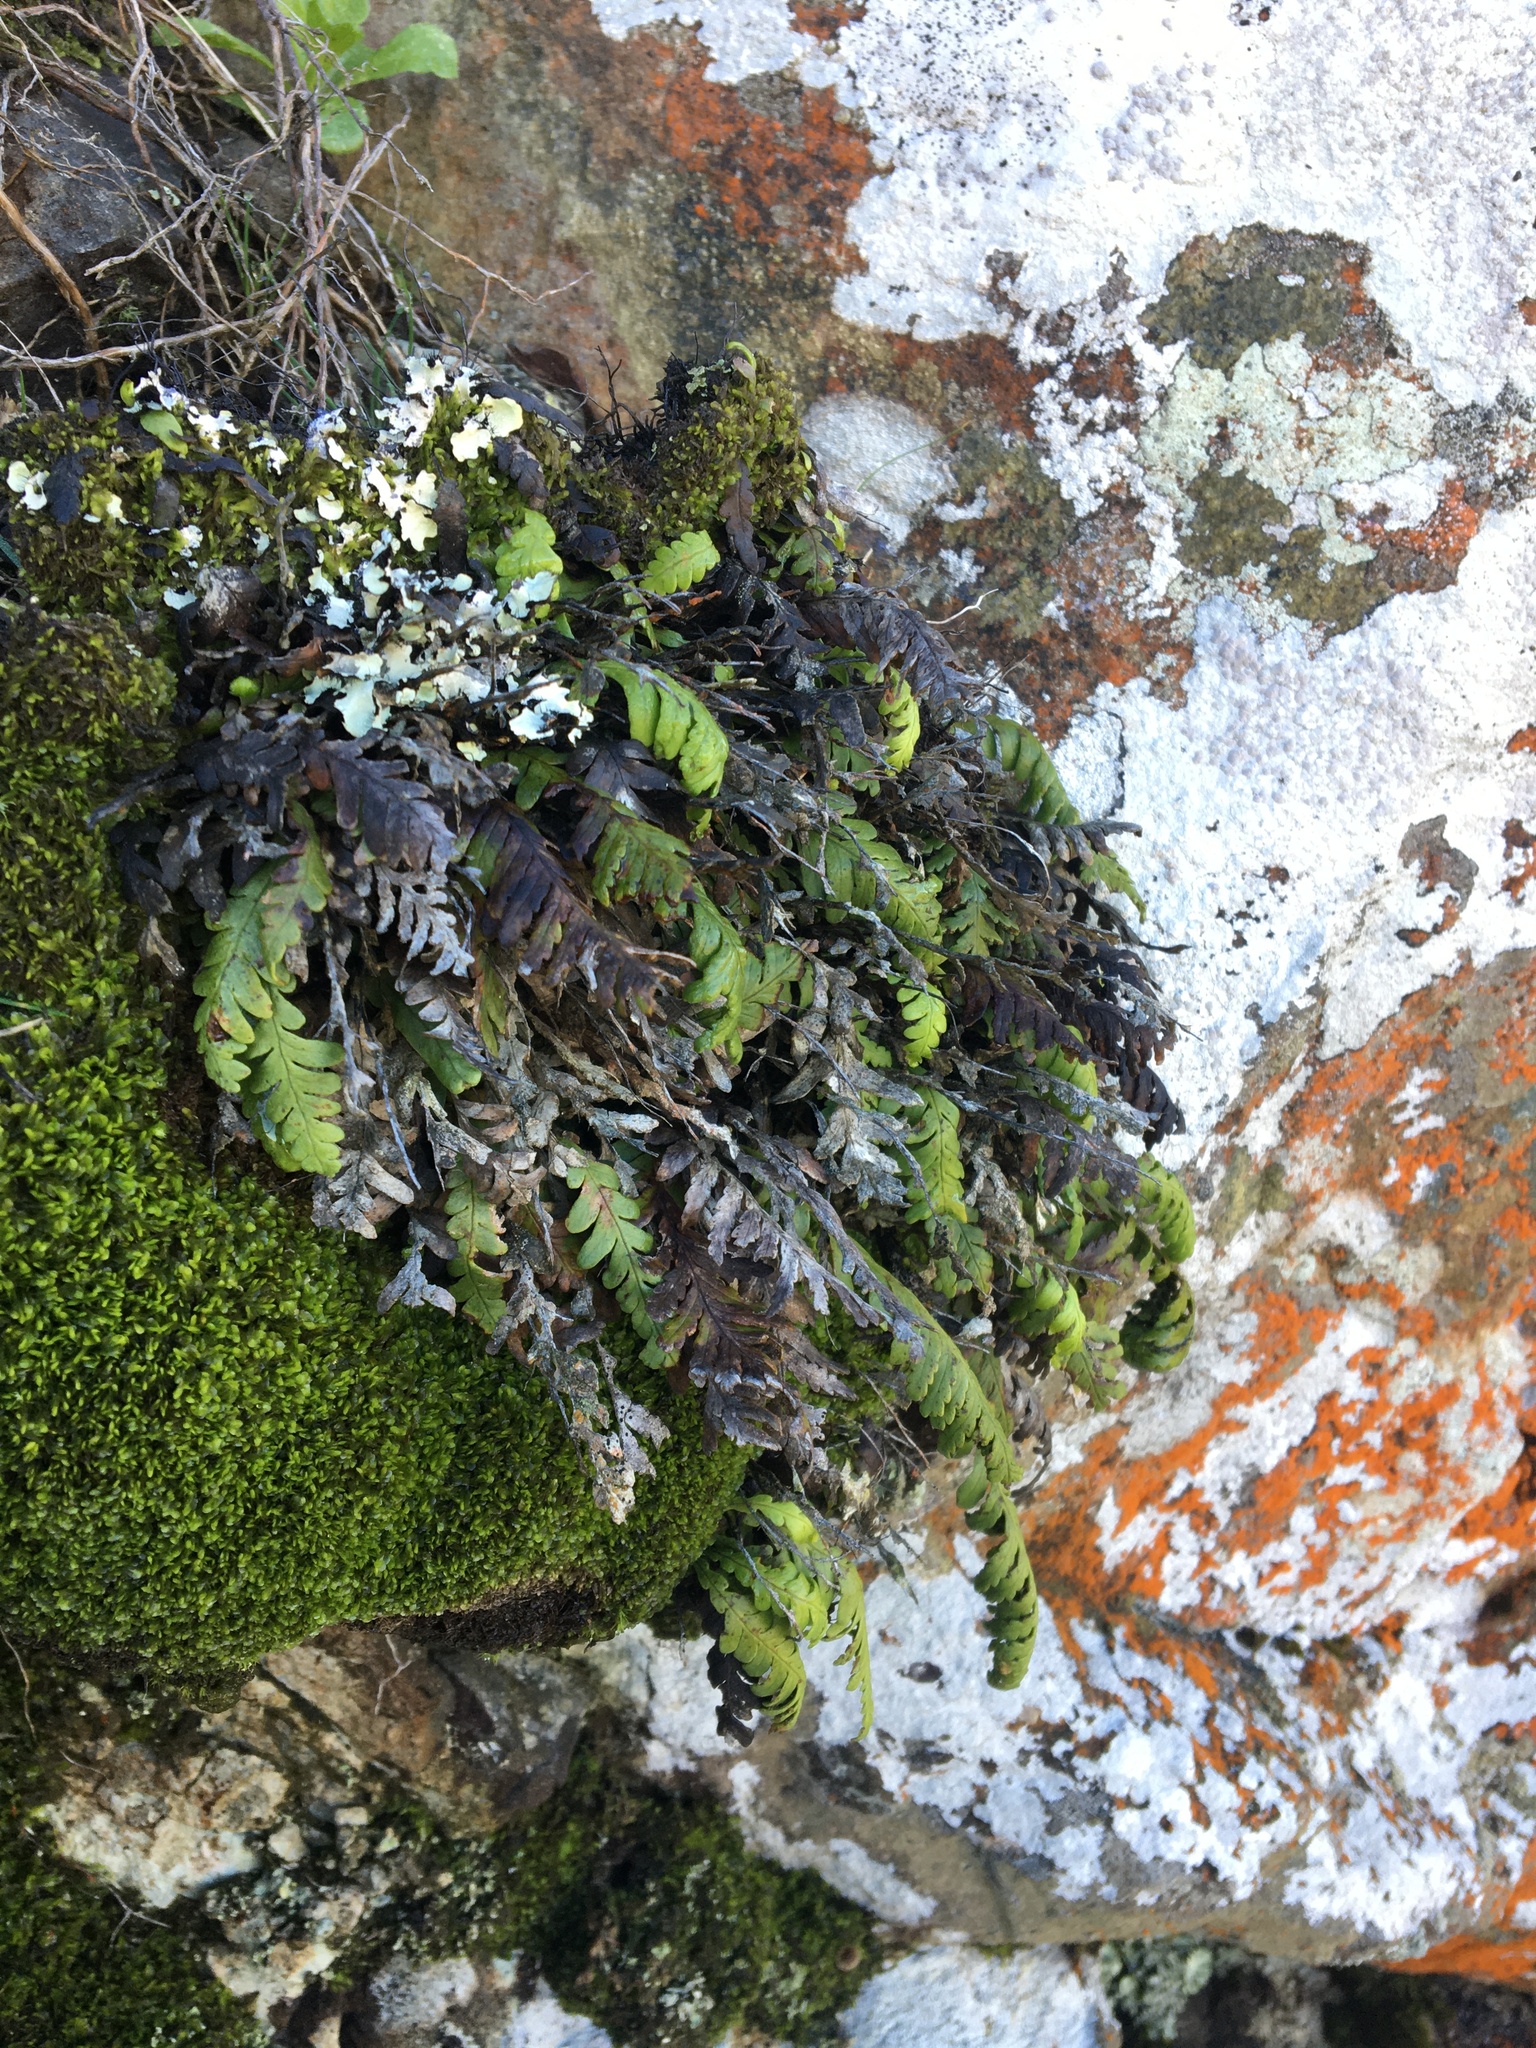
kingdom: Plantae
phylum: Tracheophyta
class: Polypodiopsida
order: Polypodiales
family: Polypodiaceae
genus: Notogrammitis
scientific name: Notogrammitis heterophylla
